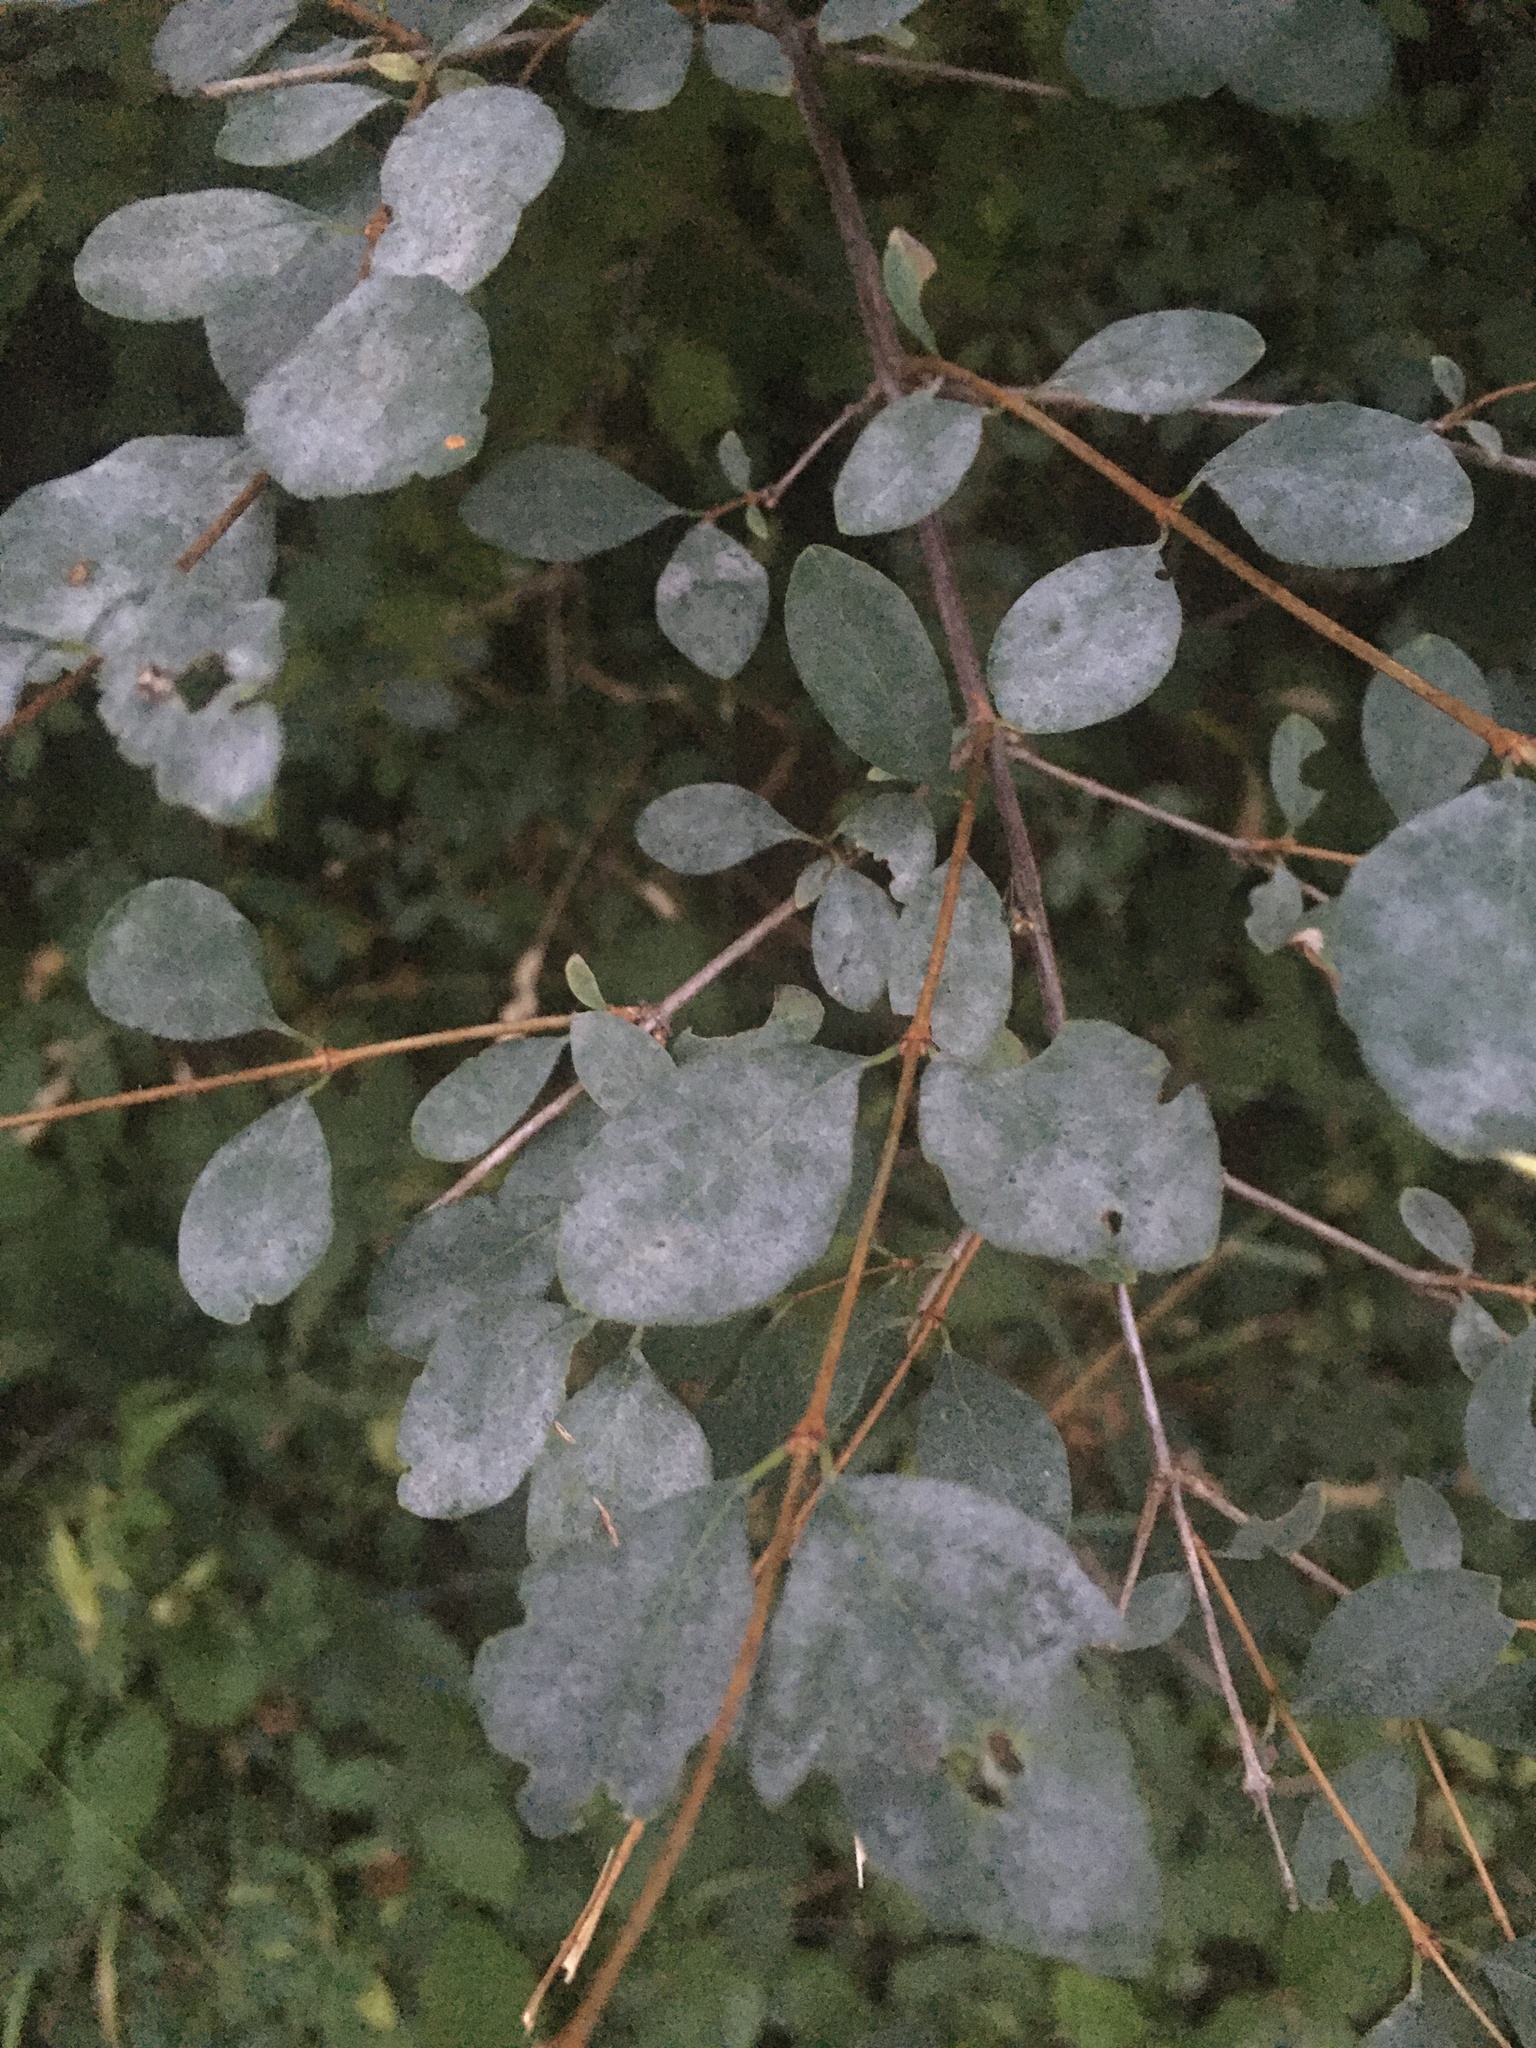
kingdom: Fungi
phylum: Ascomycota
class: Leotiomycetes
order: Helotiales
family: Erysiphaceae
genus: Erysiphe
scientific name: Erysiphe symphoricarpi
